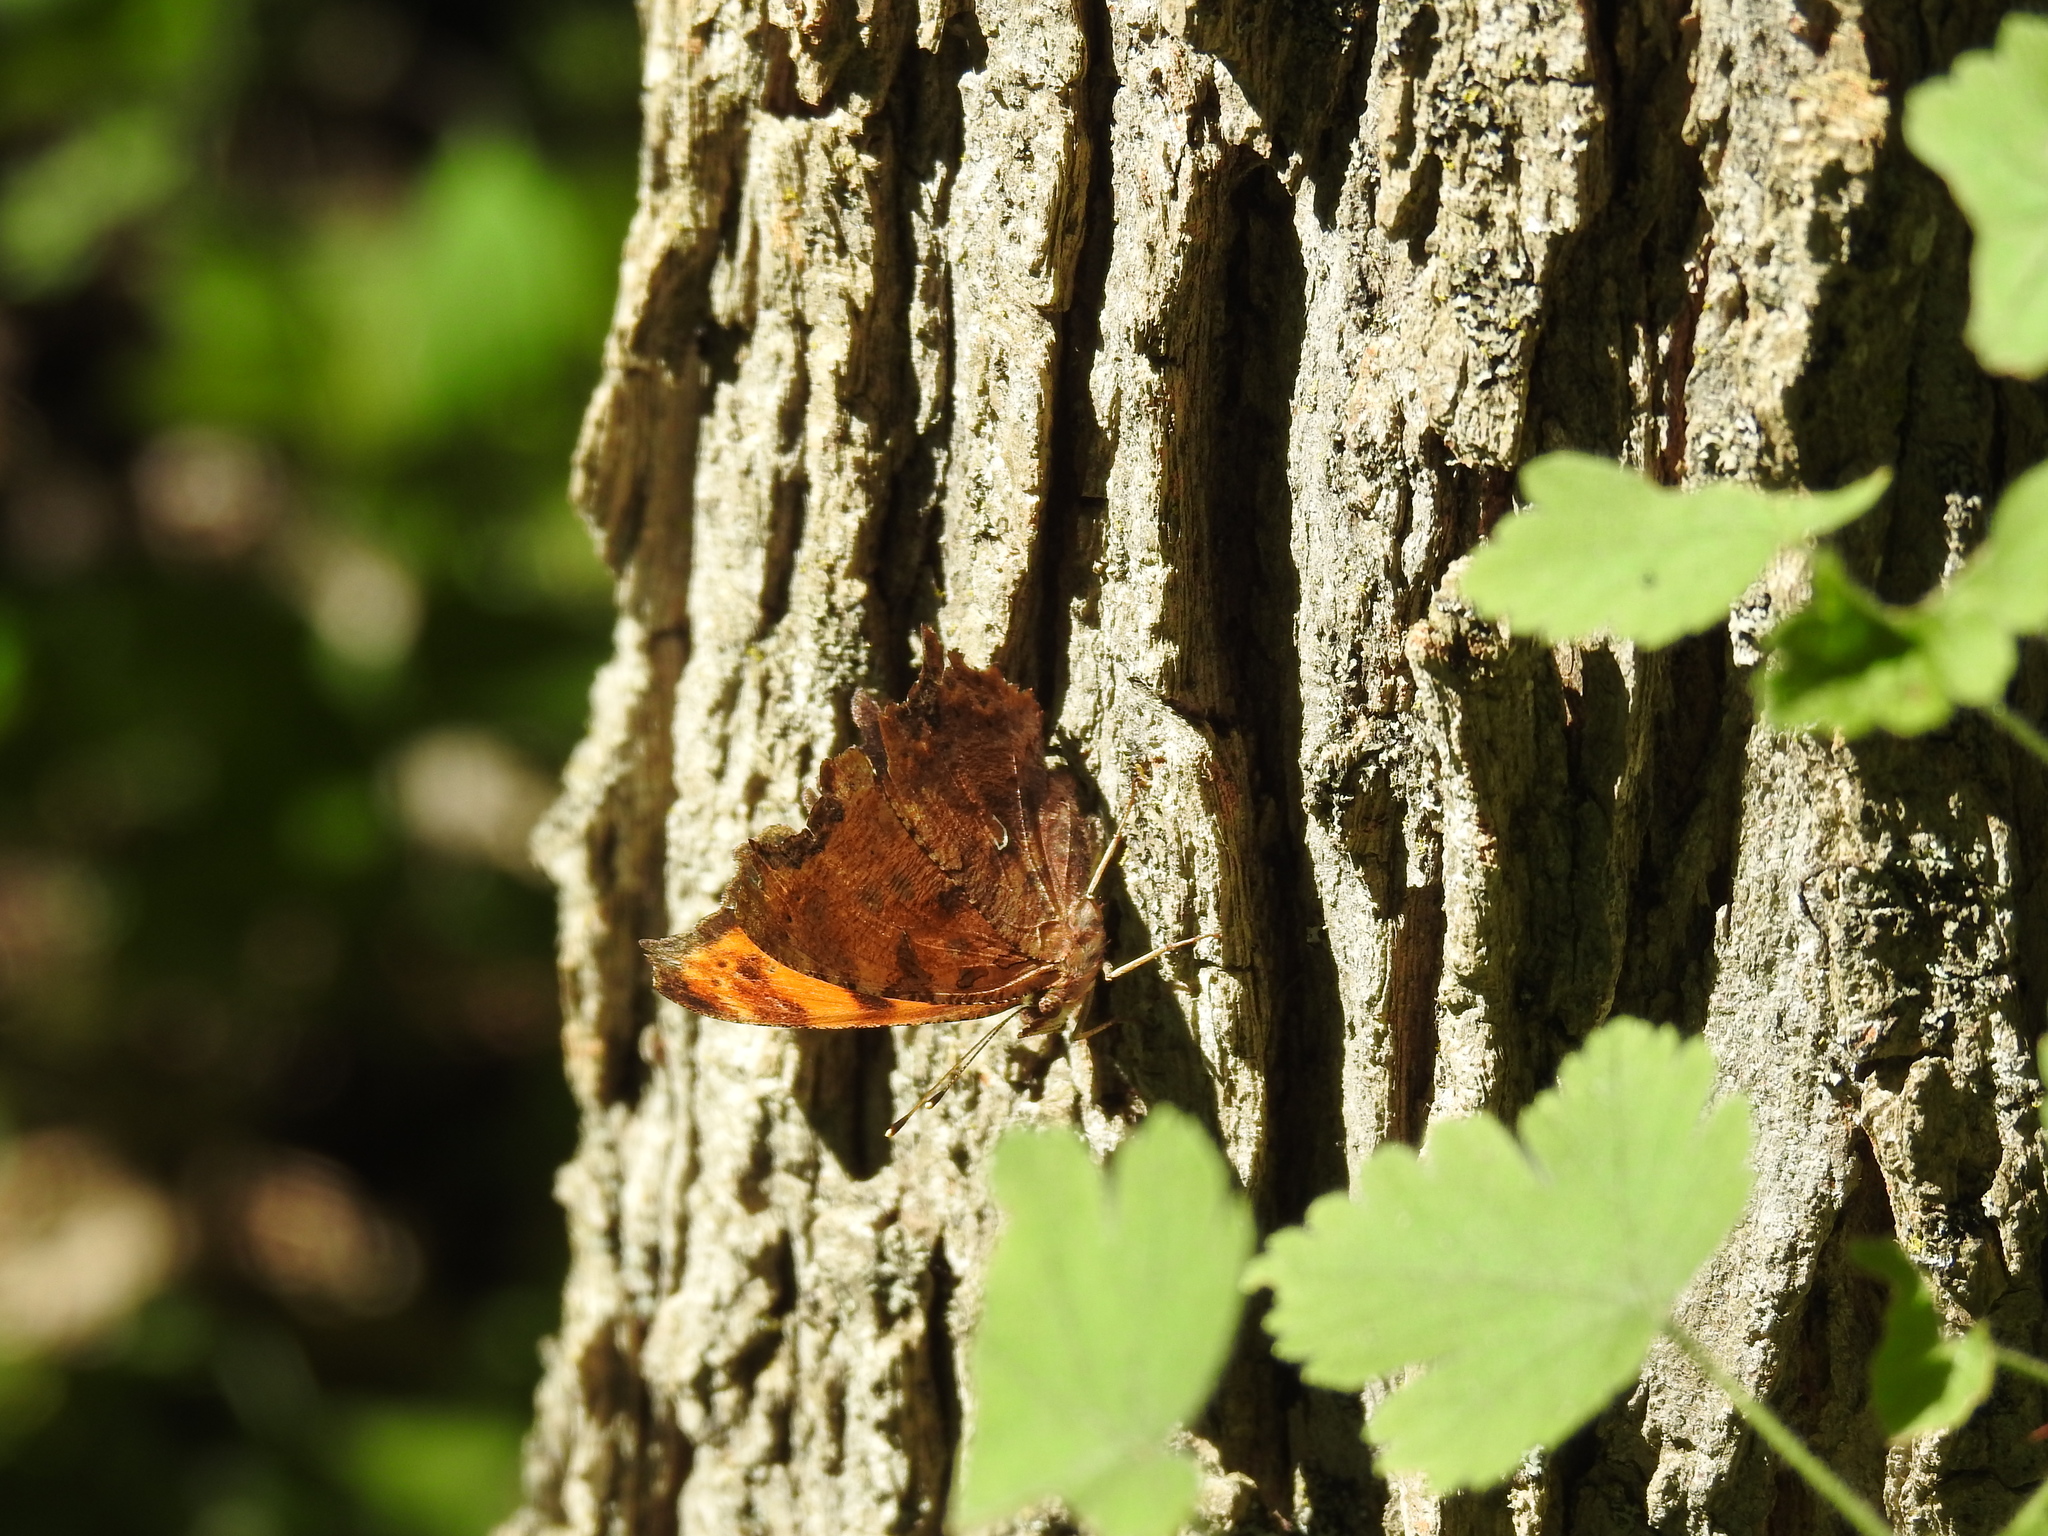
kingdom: Animalia
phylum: Arthropoda
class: Insecta
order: Lepidoptera
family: Nymphalidae
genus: Polygonia
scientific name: Polygonia comma
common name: Eastern comma
